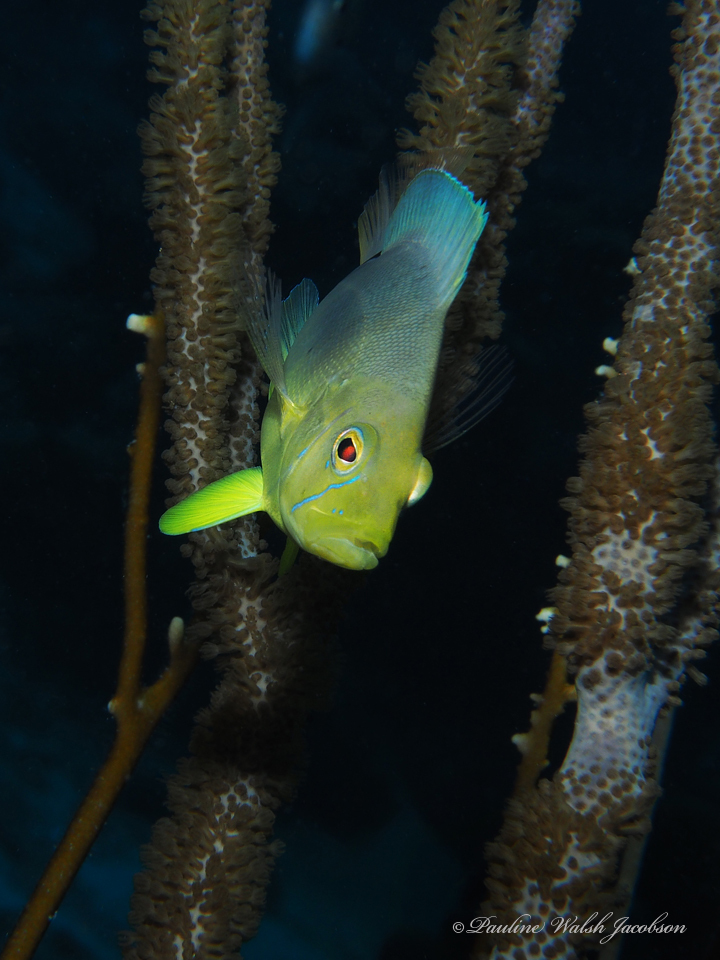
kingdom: Animalia
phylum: Chordata
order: Perciformes
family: Serranidae
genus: Hypoplectrus
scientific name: Hypoplectrus unicolor
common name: Butter hamlet
